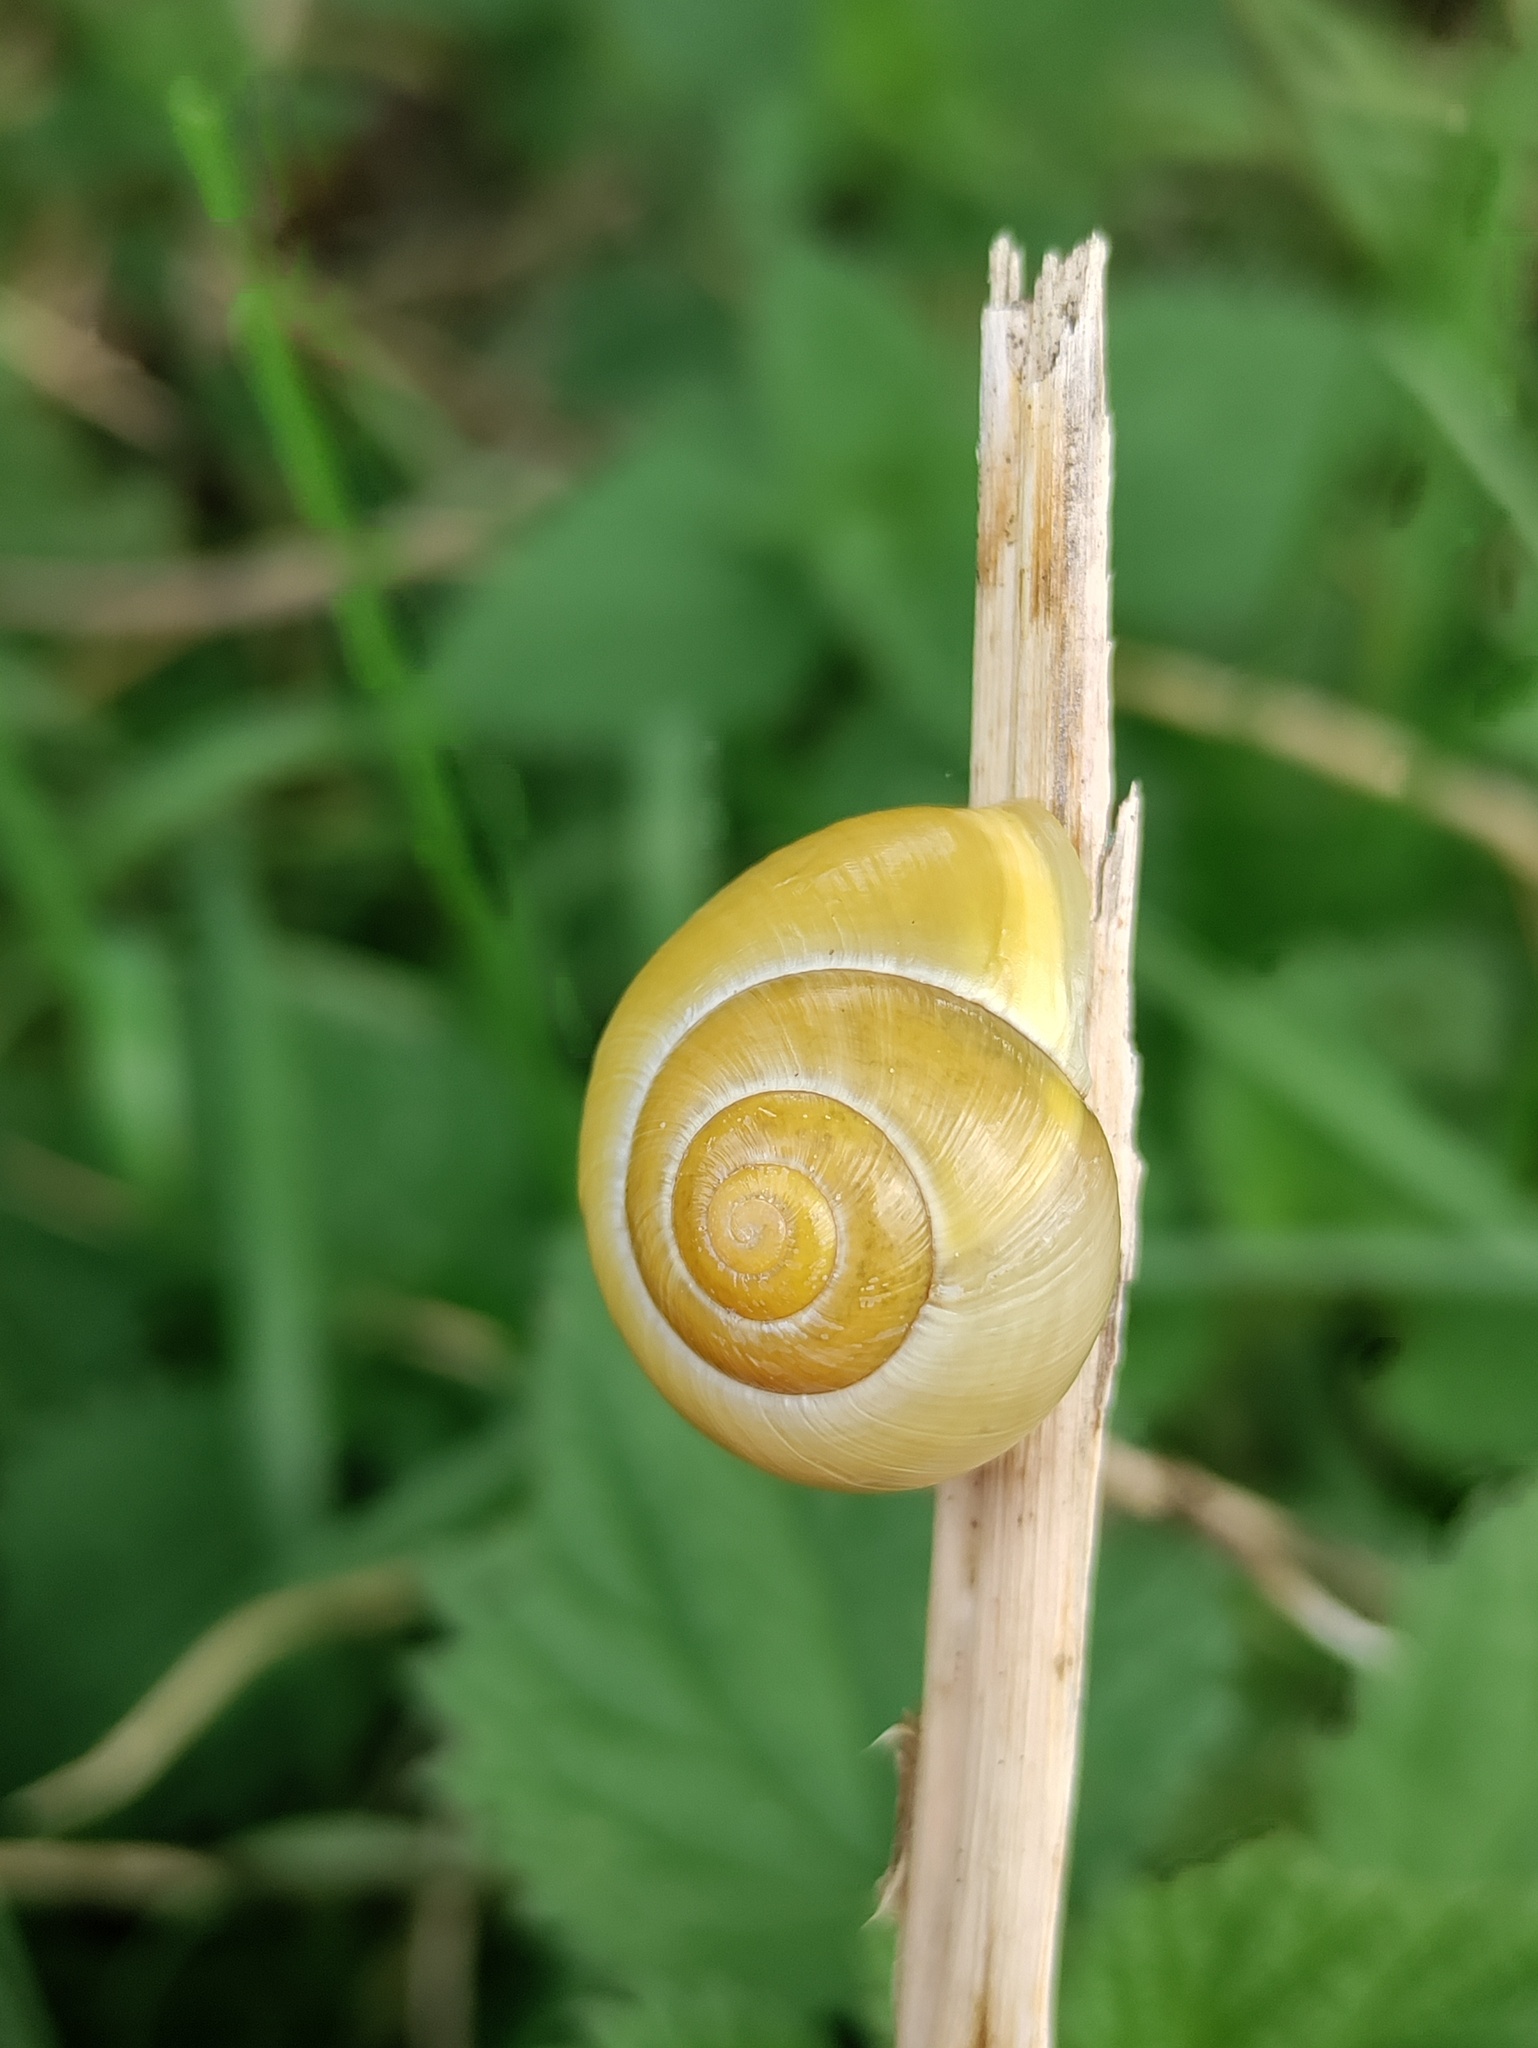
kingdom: Animalia
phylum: Mollusca
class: Gastropoda
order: Stylommatophora
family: Helicidae
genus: Cepaea
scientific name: Cepaea hortensis
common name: White-lip gardensnail
